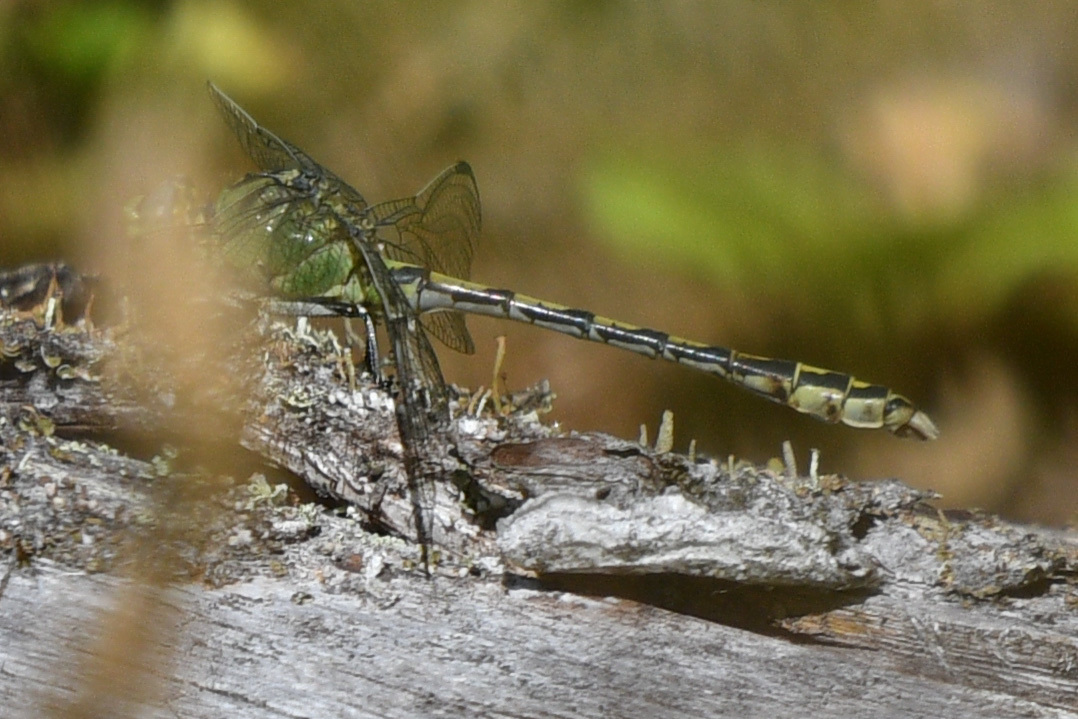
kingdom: Animalia
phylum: Arthropoda
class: Insecta
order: Odonata
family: Gomphidae
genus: Ophiogomphus
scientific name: Ophiogomphus severus
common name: Pale snaketail
